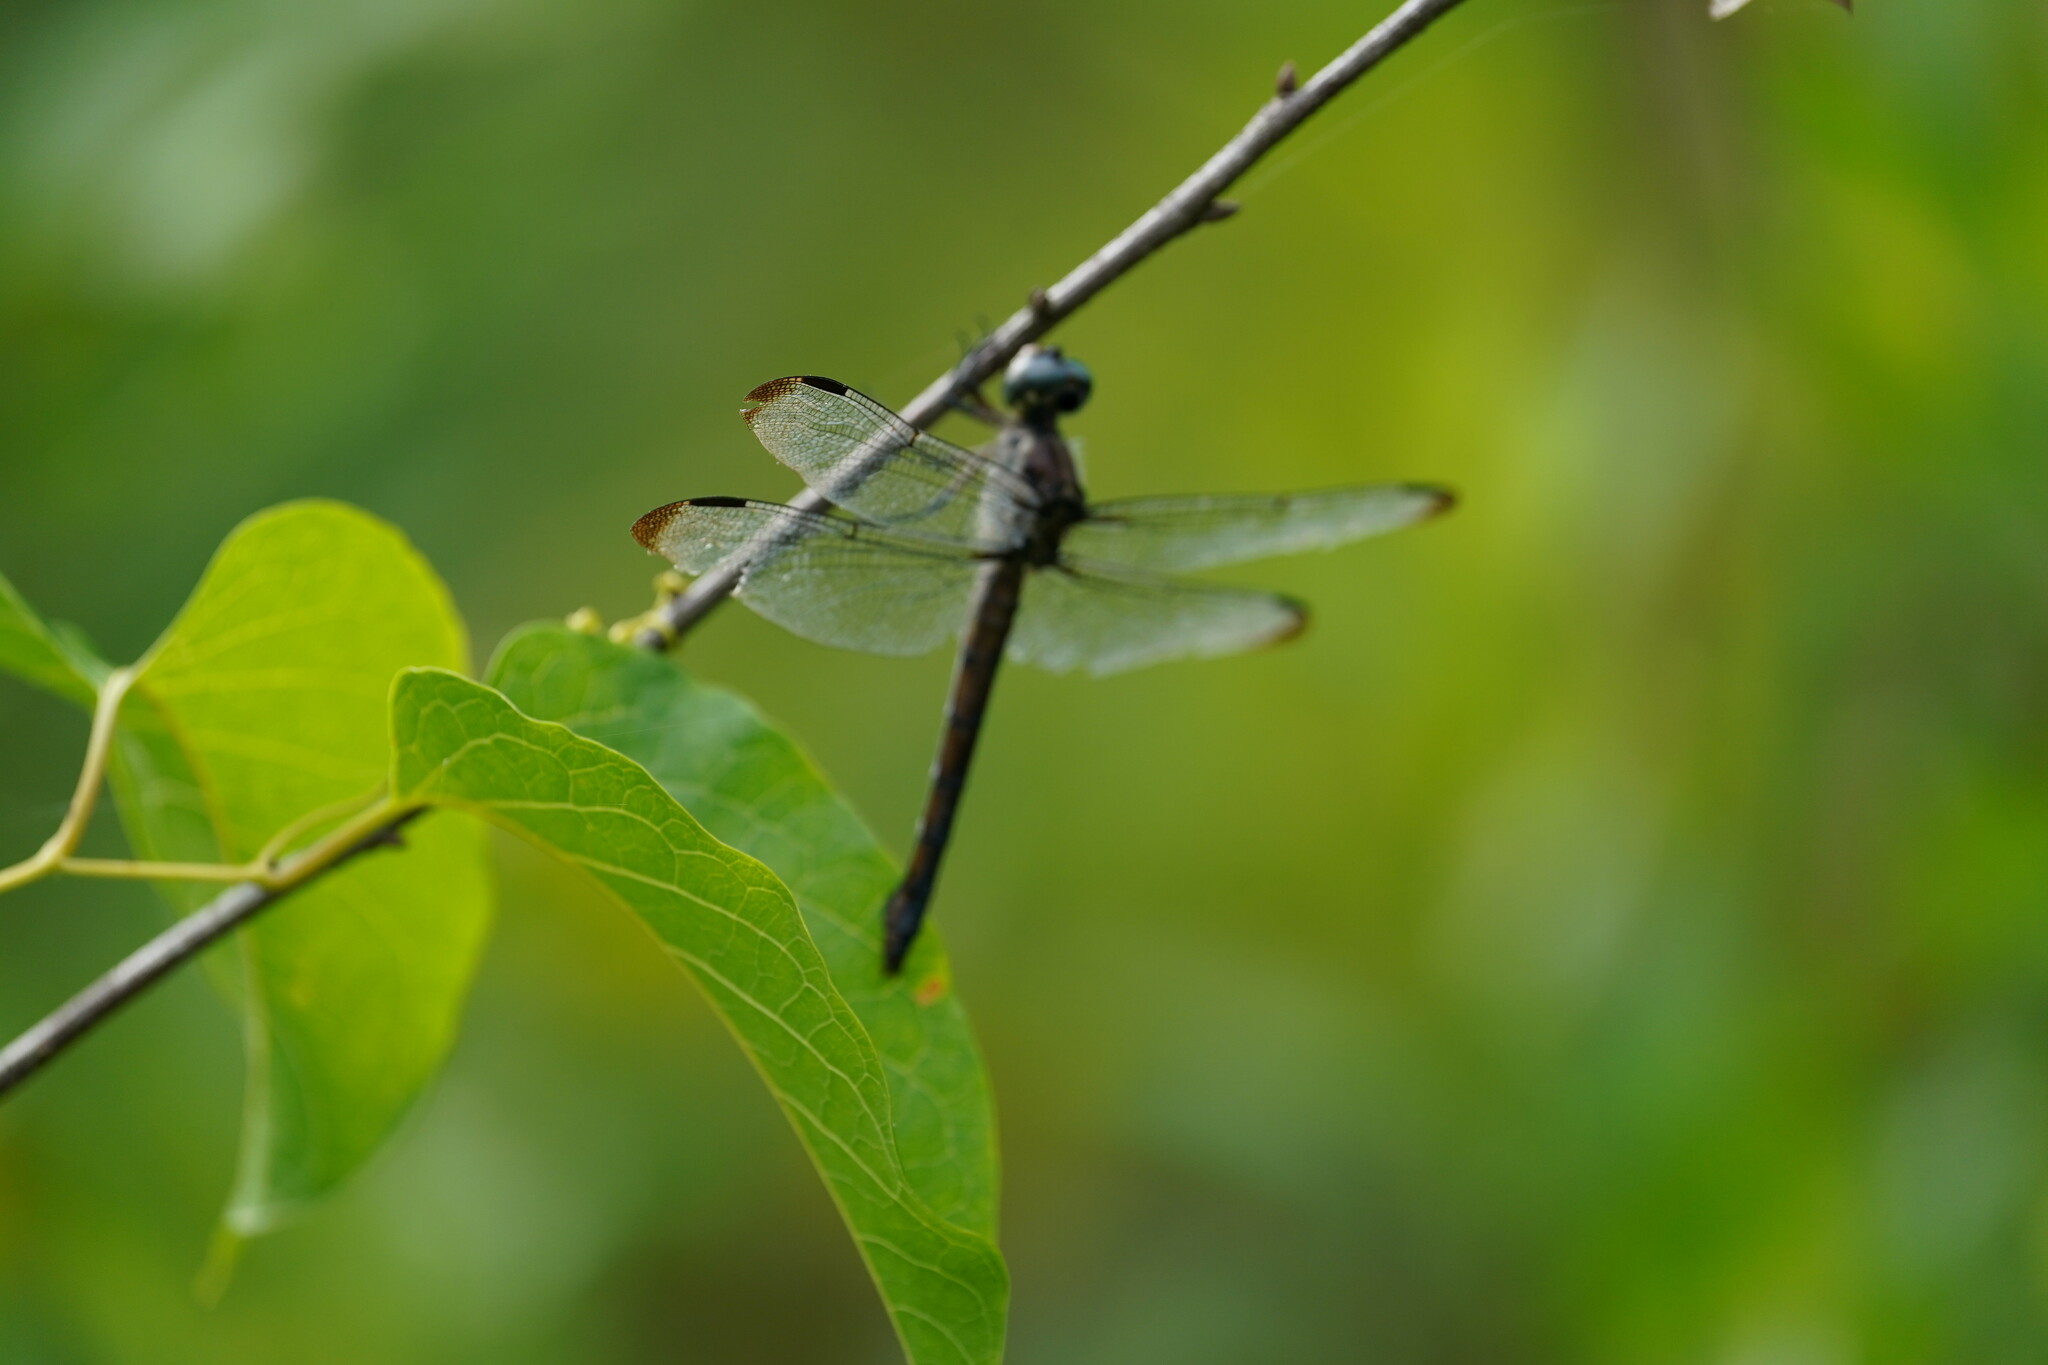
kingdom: Animalia
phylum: Arthropoda
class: Insecta
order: Odonata
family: Libellulidae
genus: Libellula
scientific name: Libellula vibrans
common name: Great blue skimmer
